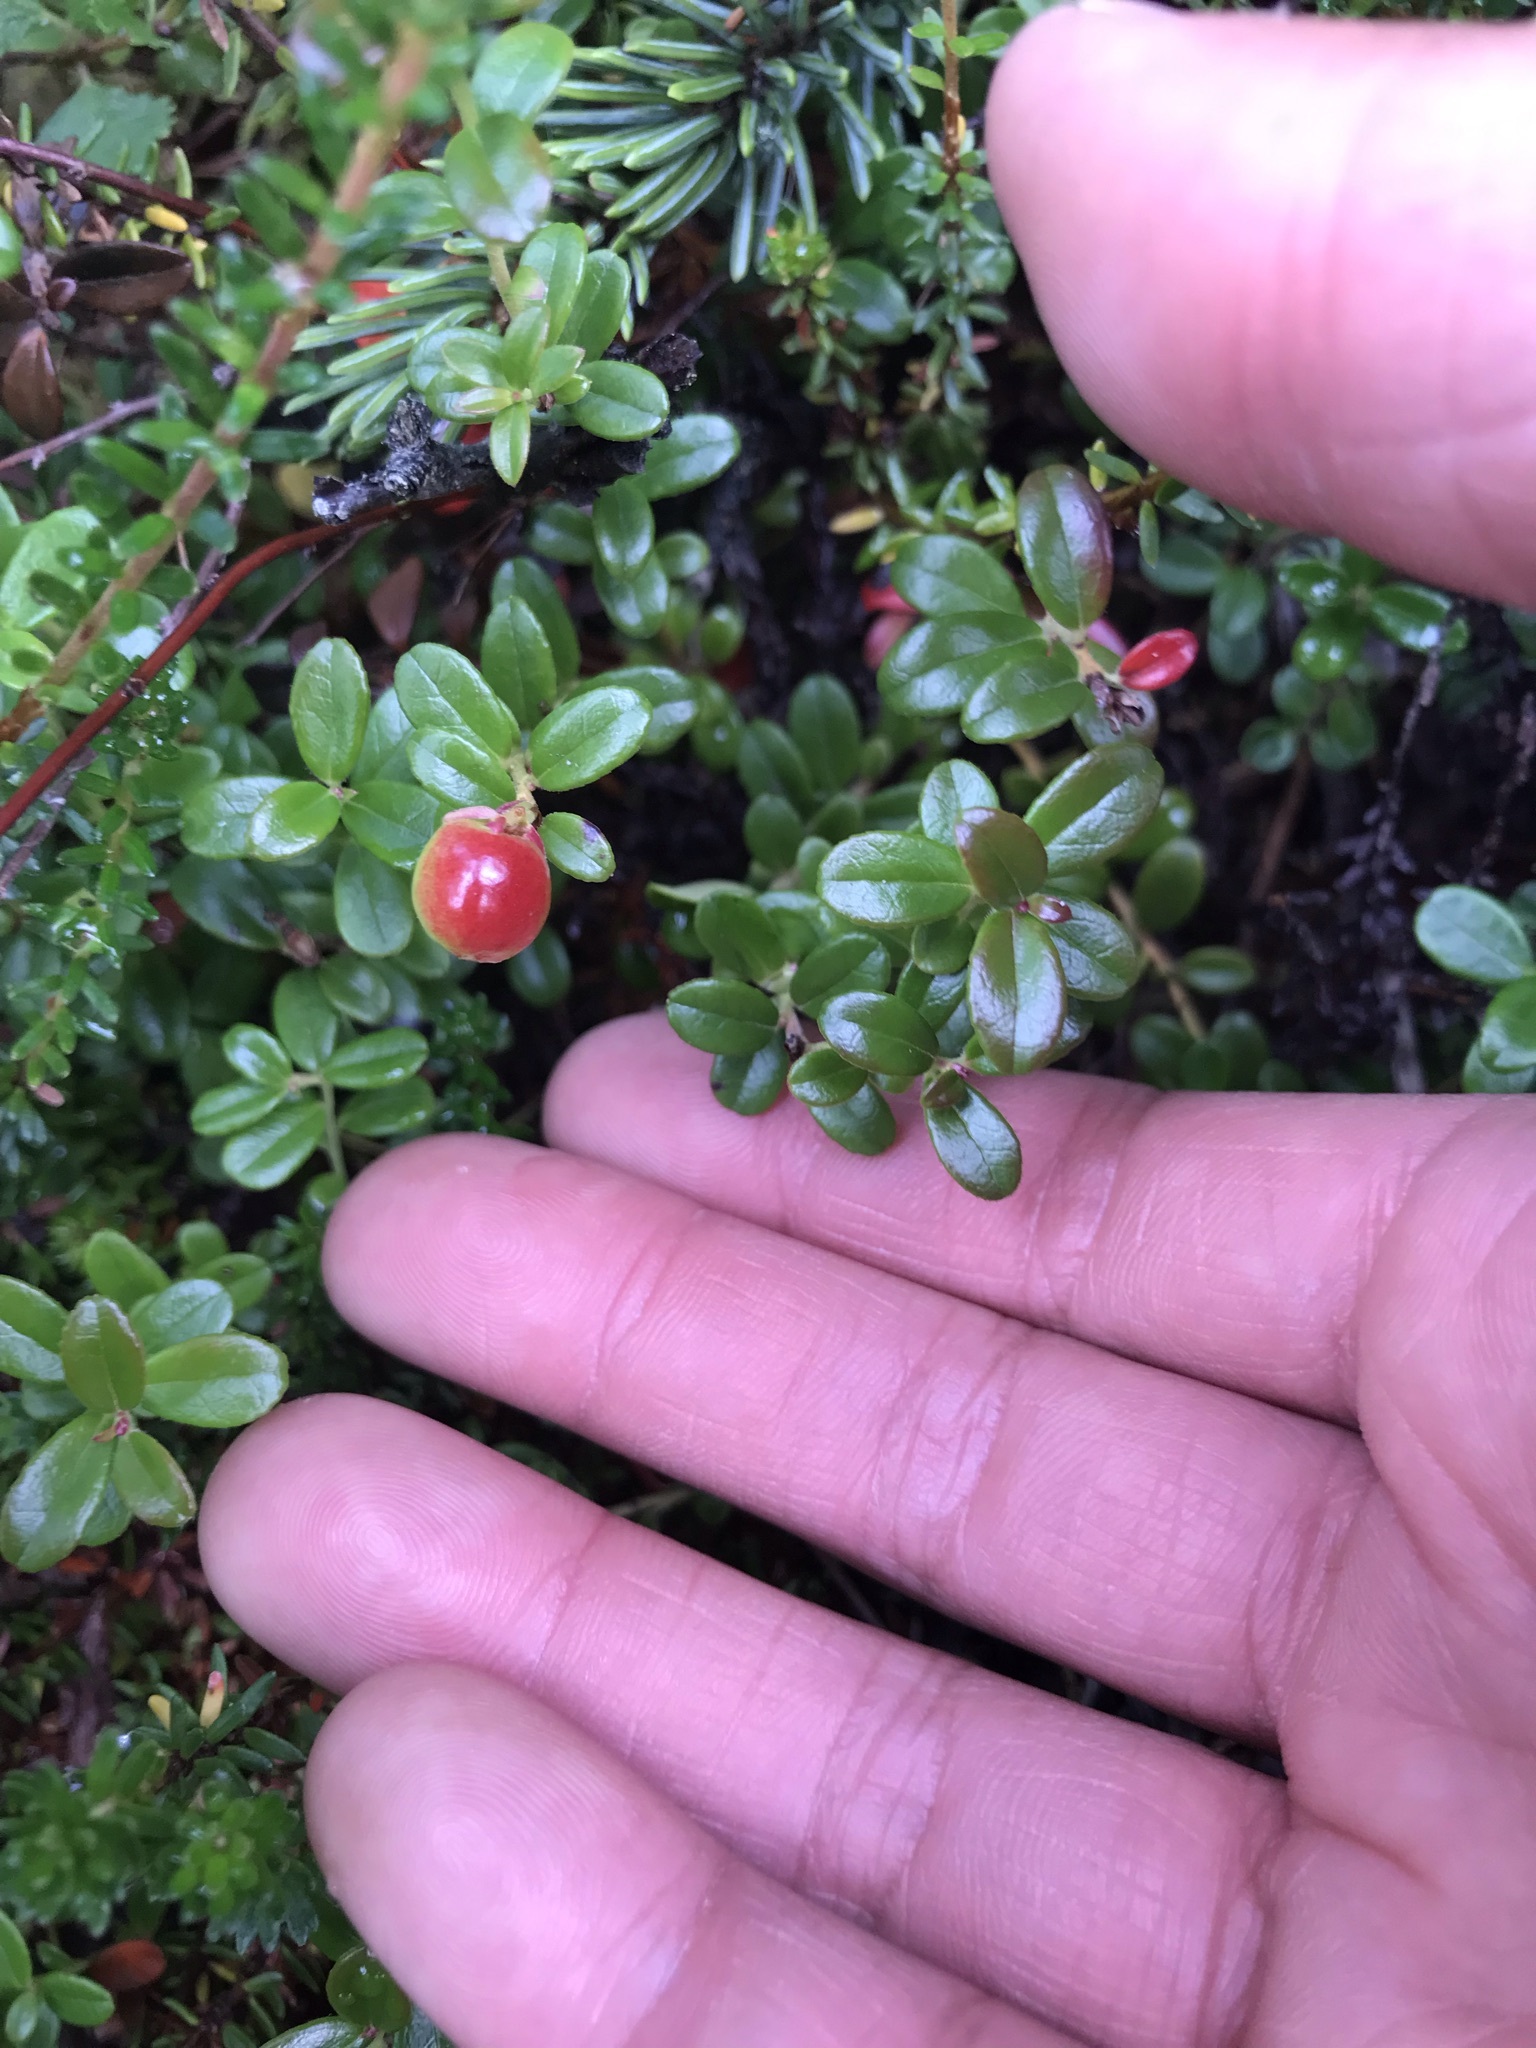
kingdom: Plantae
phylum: Tracheophyta
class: Magnoliopsida
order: Ericales
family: Ericaceae
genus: Vaccinium
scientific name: Vaccinium vitis-idaea
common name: Cowberry
